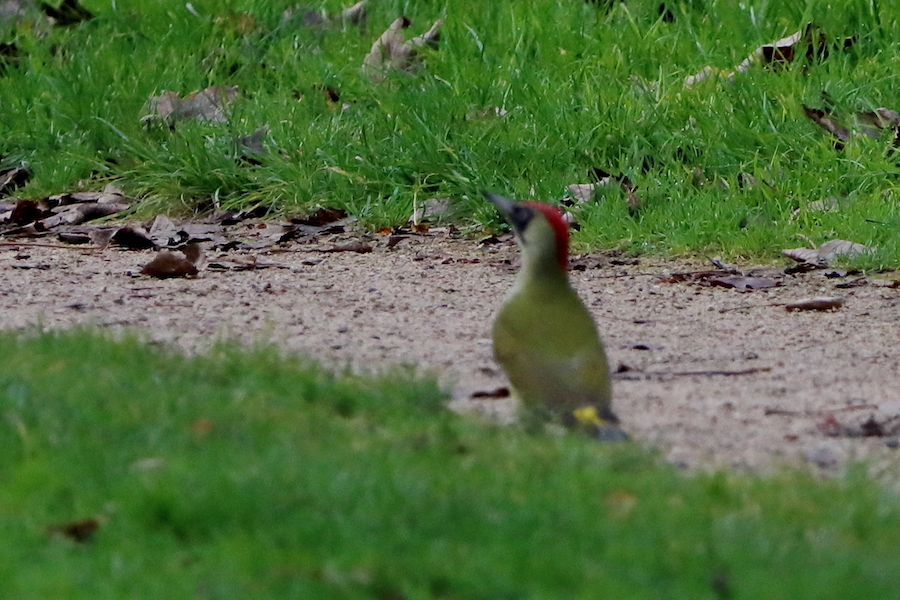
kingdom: Animalia
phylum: Chordata
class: Aves
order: Piciformes
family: Picidae
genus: Picus
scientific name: Picus viridis
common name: European green woodpecker
